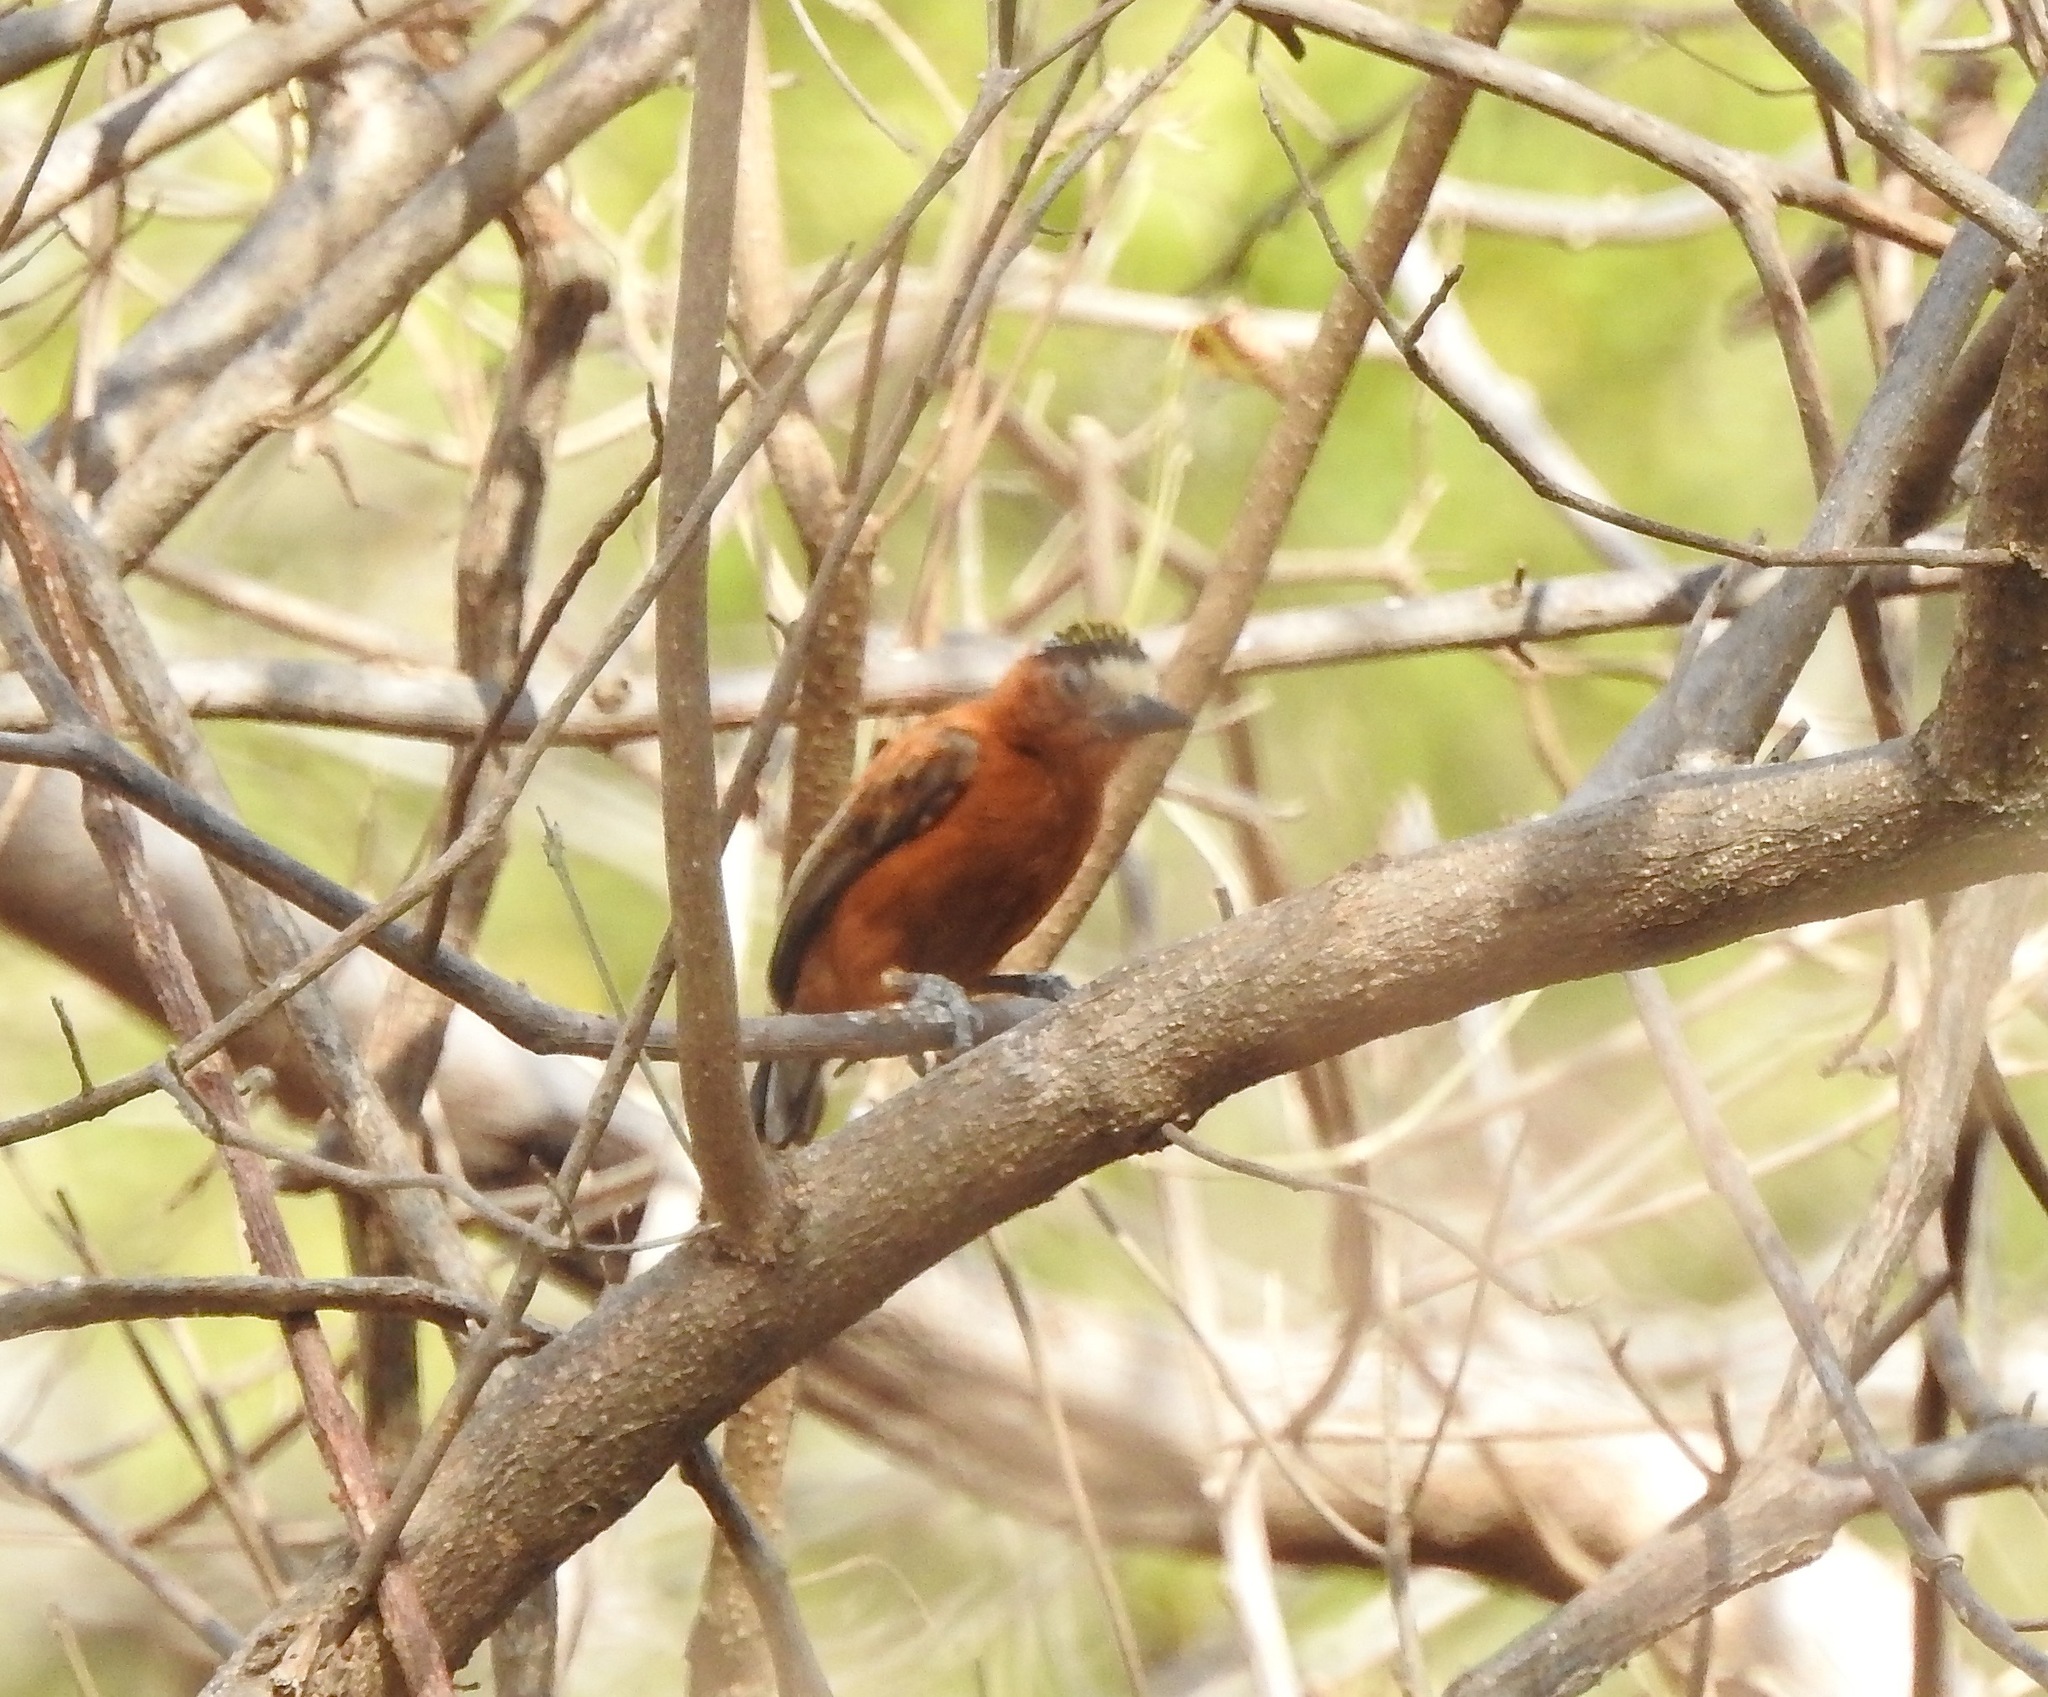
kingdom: Animalia
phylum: Chordata
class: Aves
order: Piciformes
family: Picidae
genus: Picumnus
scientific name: Picumnus cinnamomeus
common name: Chestnut piculet
